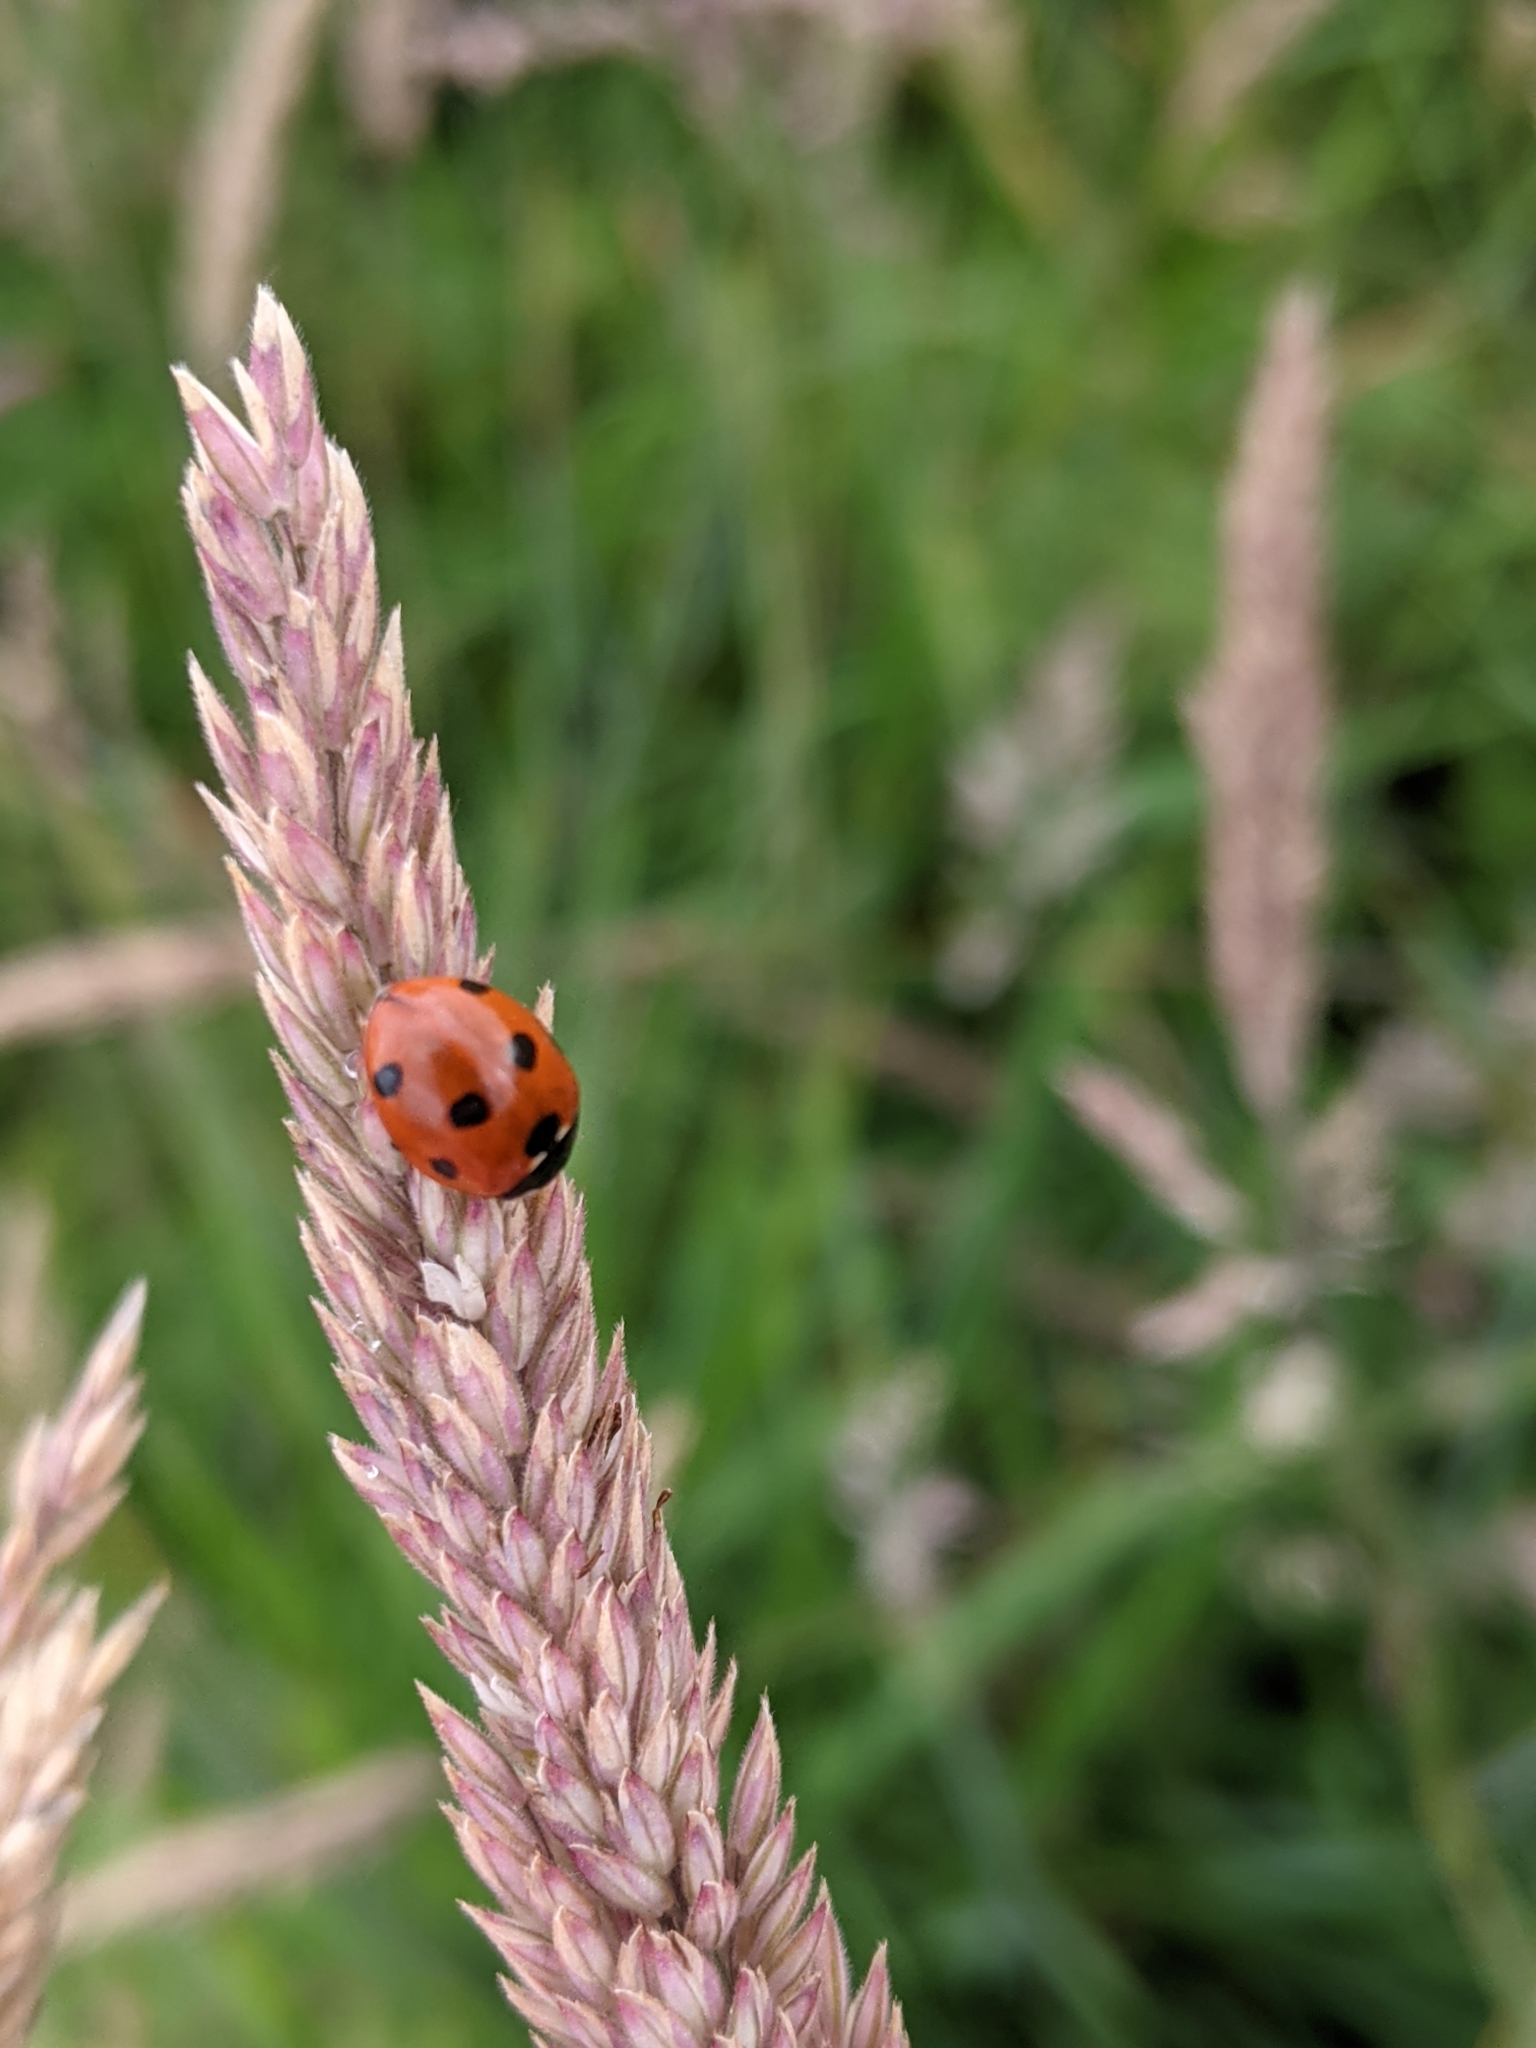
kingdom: Animalia
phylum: Arthropoda
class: Insecta
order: Coleoptera
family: Coccinellidae
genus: Coccinella
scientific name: Coccinella septempunctata
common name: Sevenspotted lady beetle
